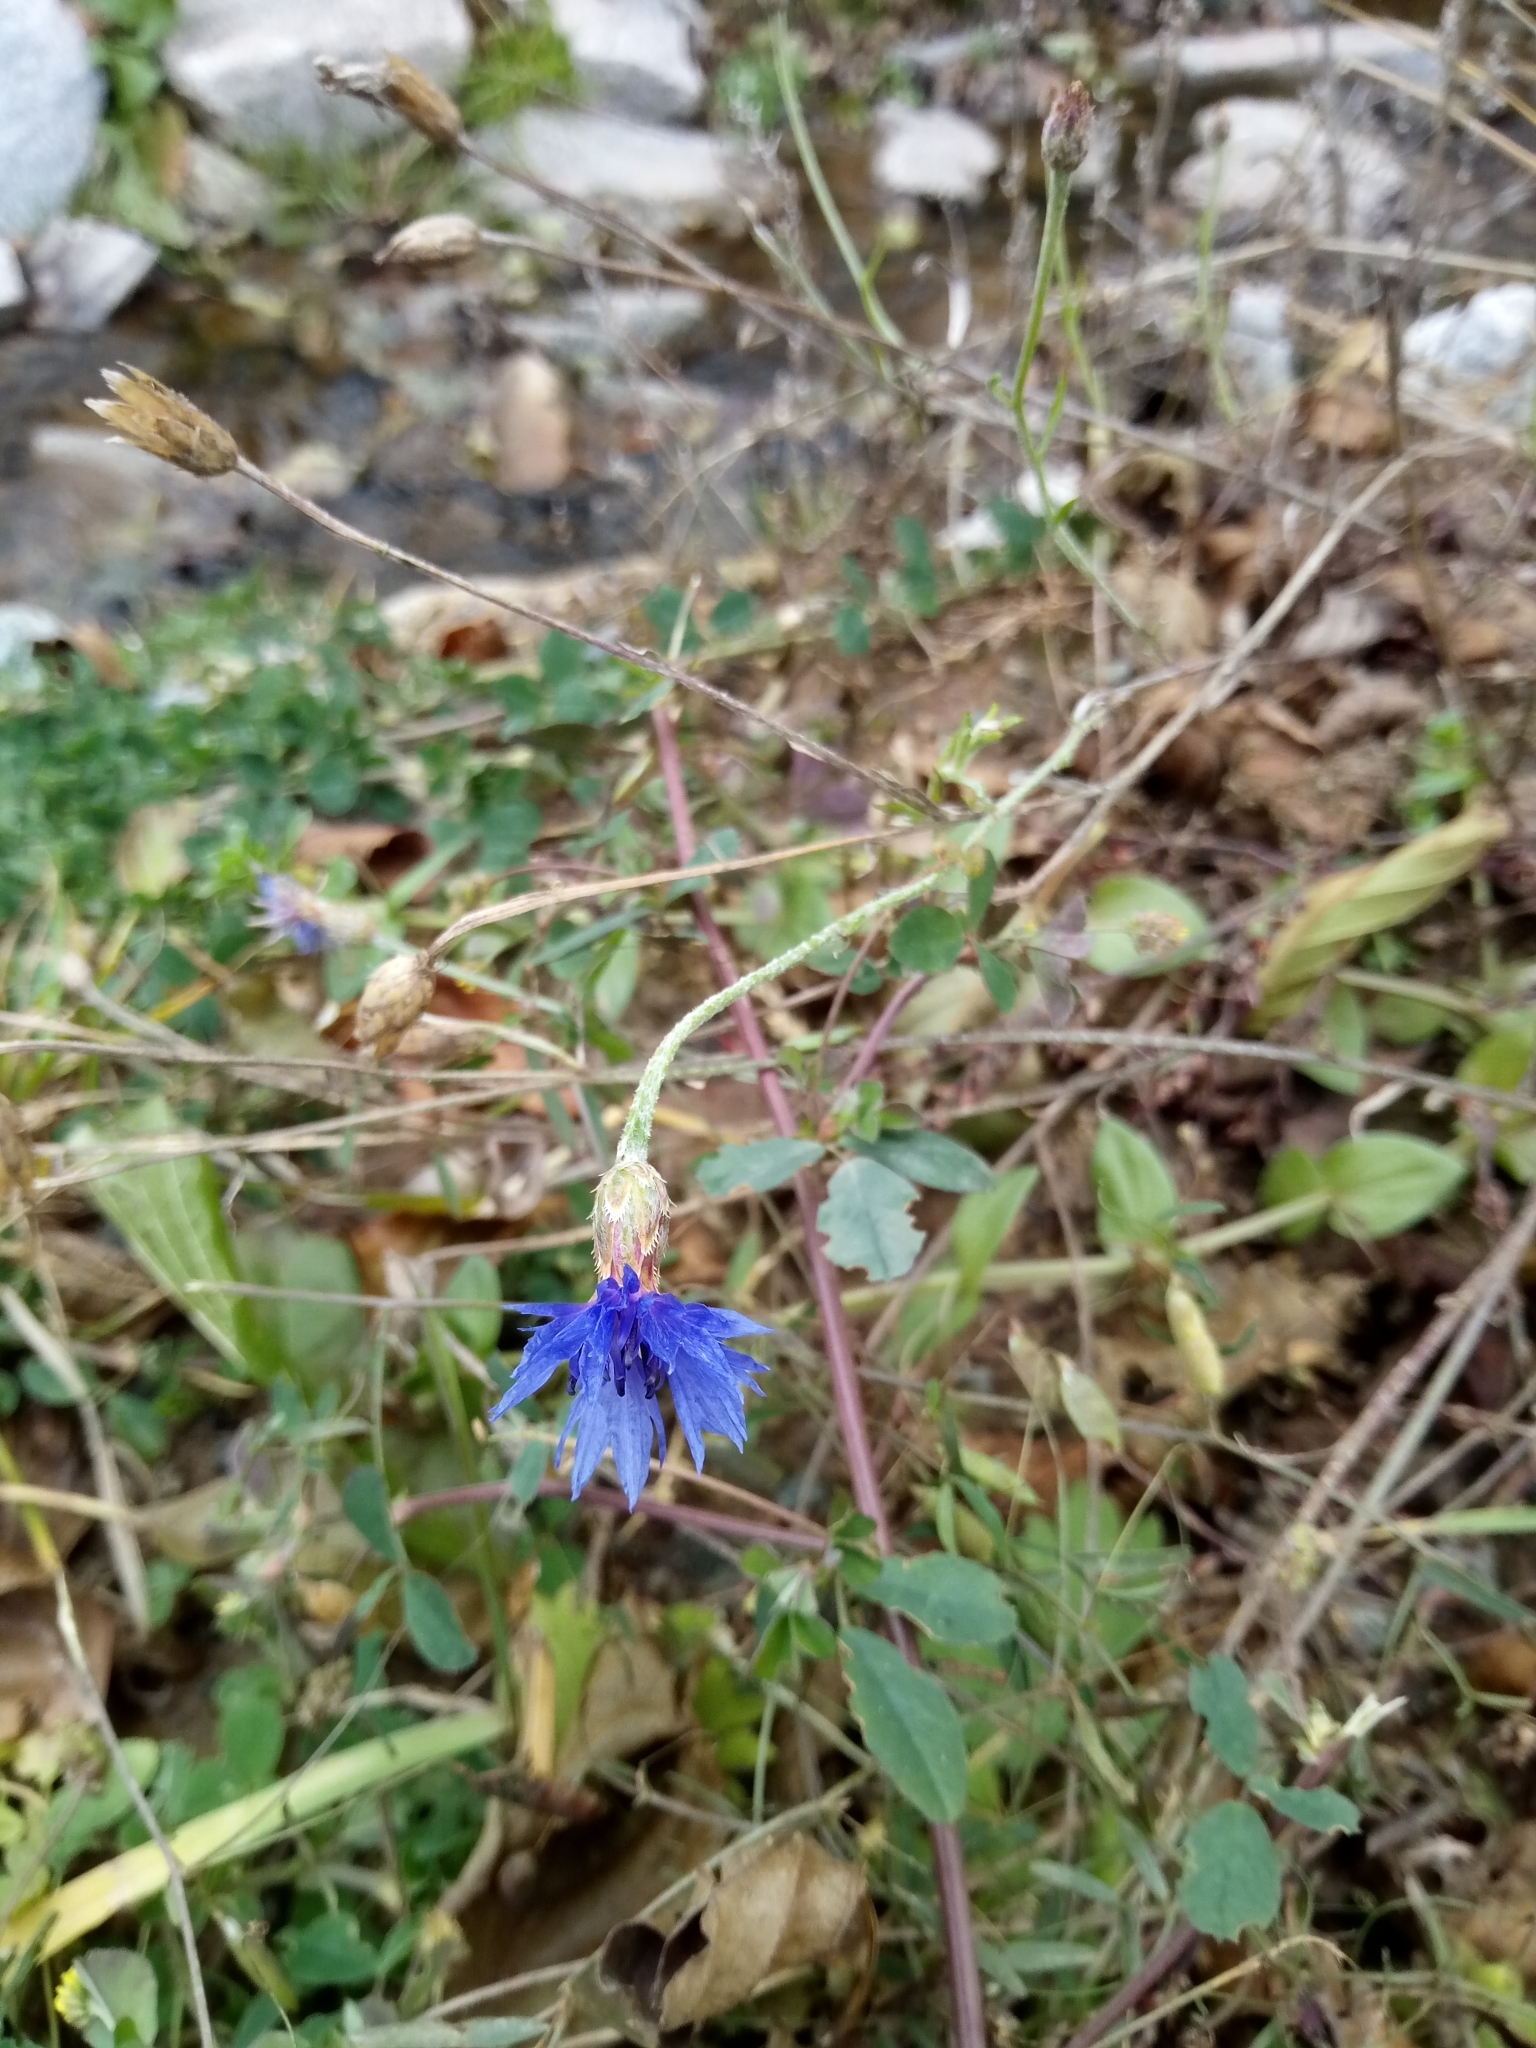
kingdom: Plantae
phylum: Tracheophyta
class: Magnoliopsida
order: Asterales
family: Asteraceae
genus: Centaurea
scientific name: Centaurea cyanus
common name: Cornflower
